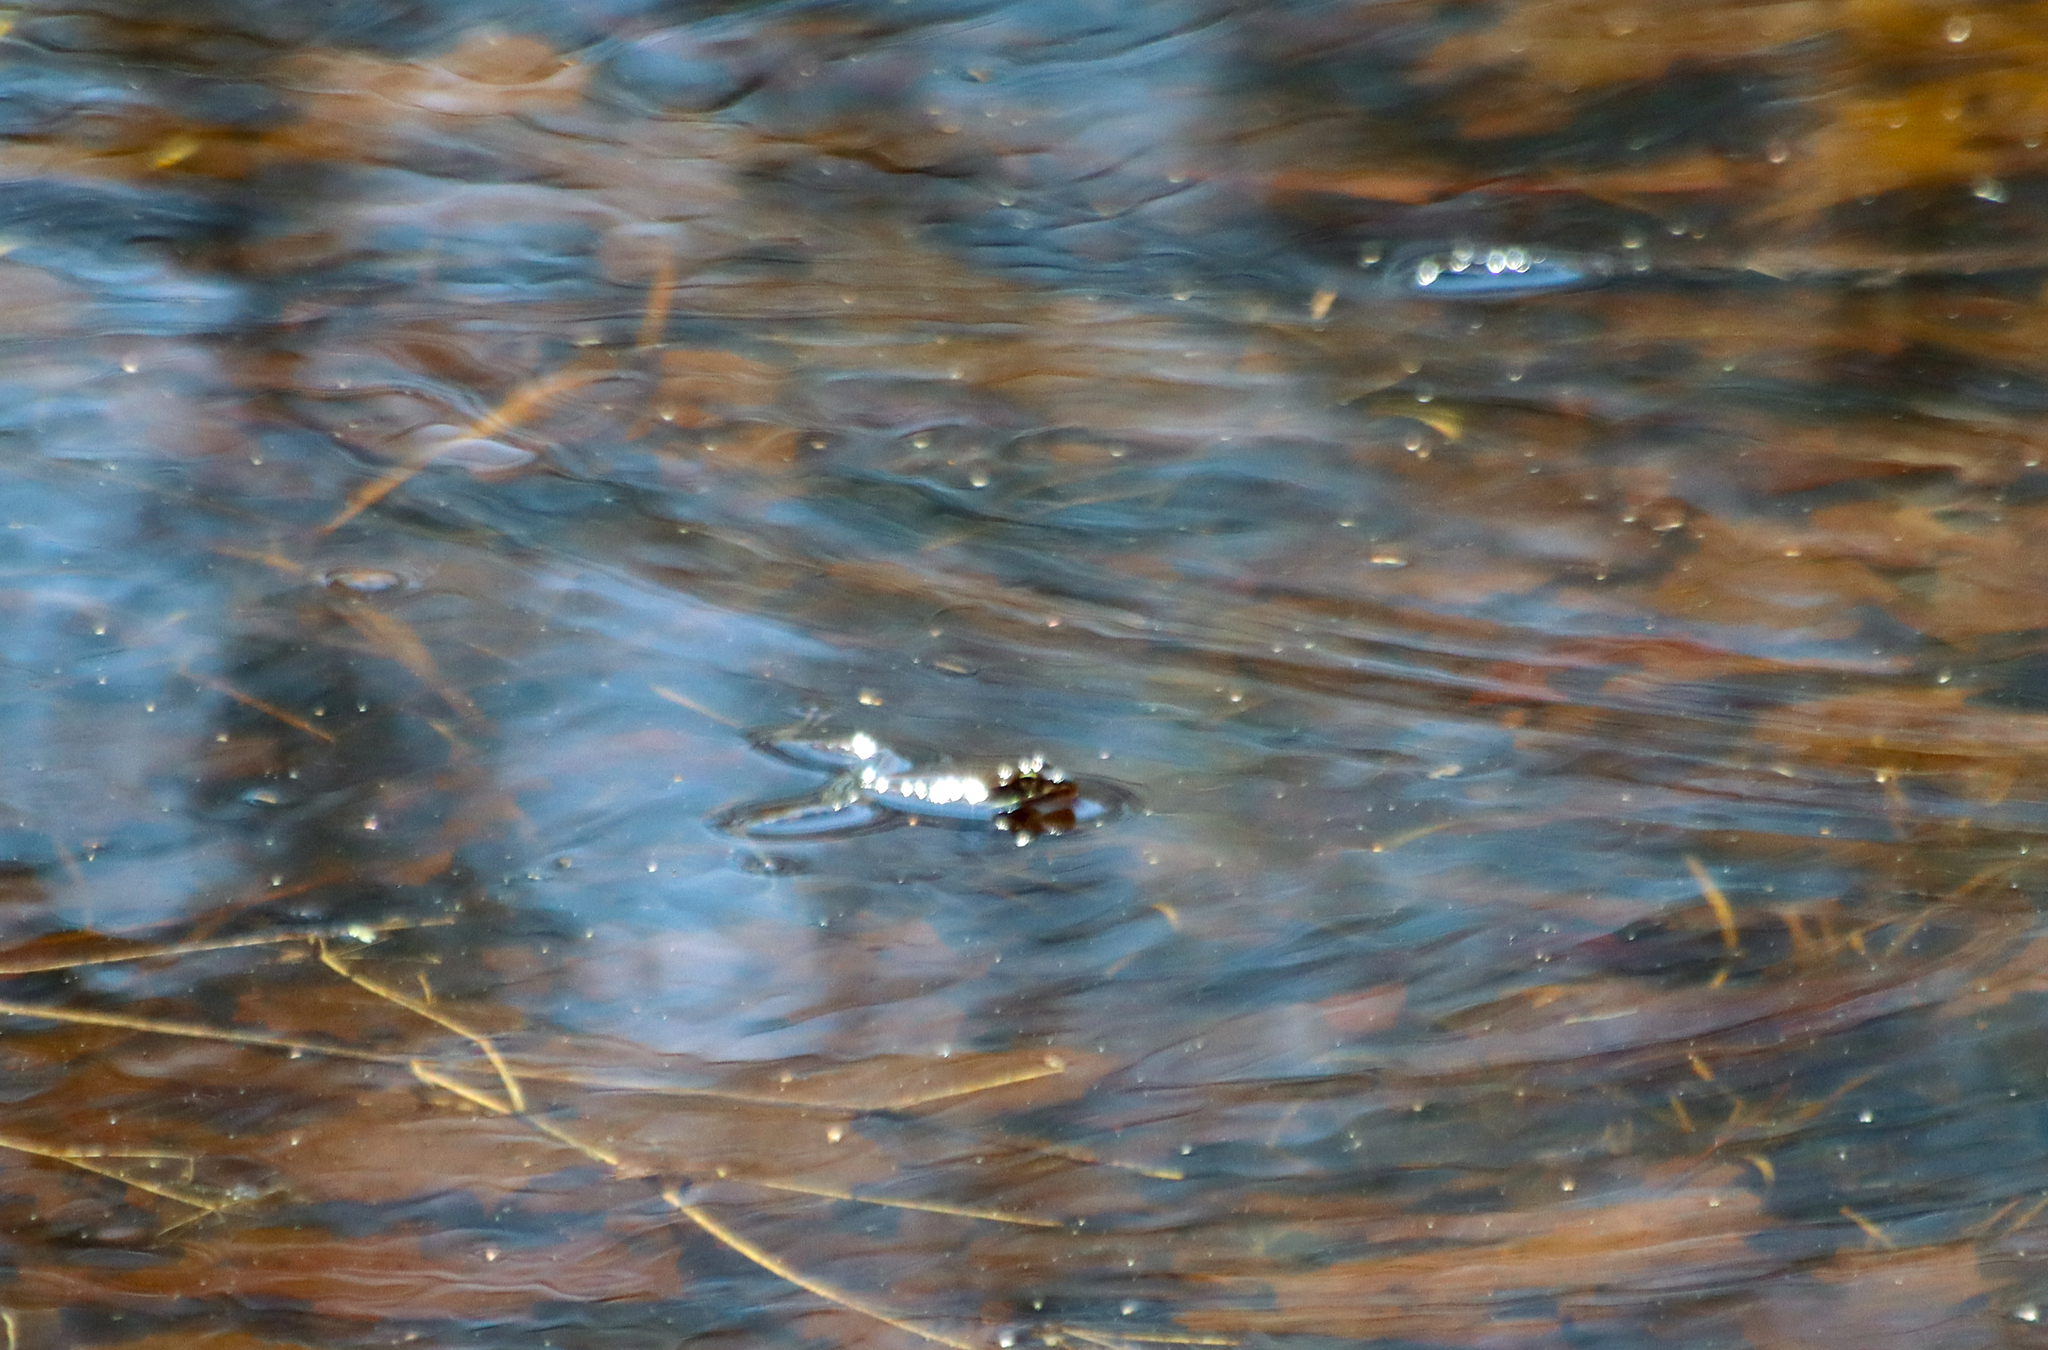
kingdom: Animalia
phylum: Chordata
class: Amphibia
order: Anura
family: Ranidae
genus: Lithobates
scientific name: Lithobates sylvaticus
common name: Wood frog
